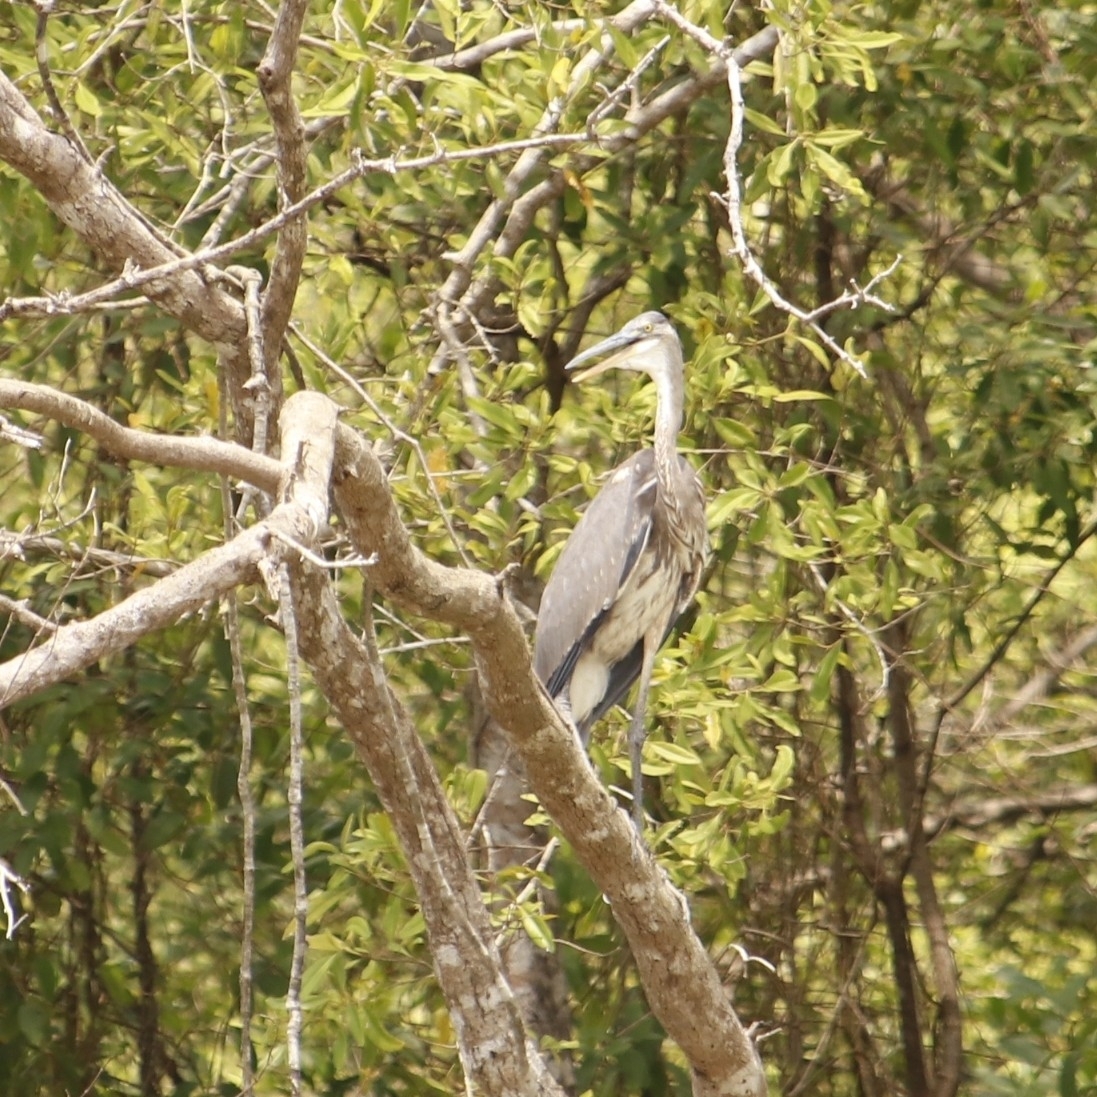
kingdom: Animalia
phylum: Chordata
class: Aves
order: Pelecaniformes
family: Ardeidae
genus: Ardea
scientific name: Ardea herodias
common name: Great blue heron
